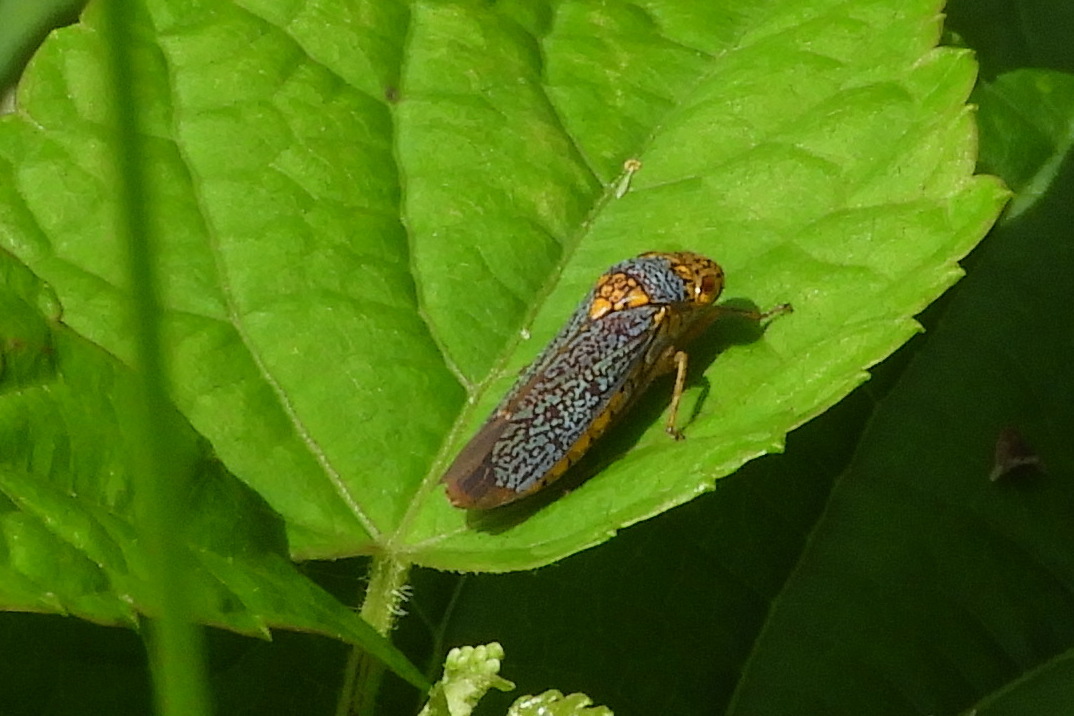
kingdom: Animalia
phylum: Arthropoda
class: Insecta
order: Hemiptera
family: Cicadellidae
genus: Oncometopia
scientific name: Oncometopia orbona
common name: Broad-headed sharpshooter
